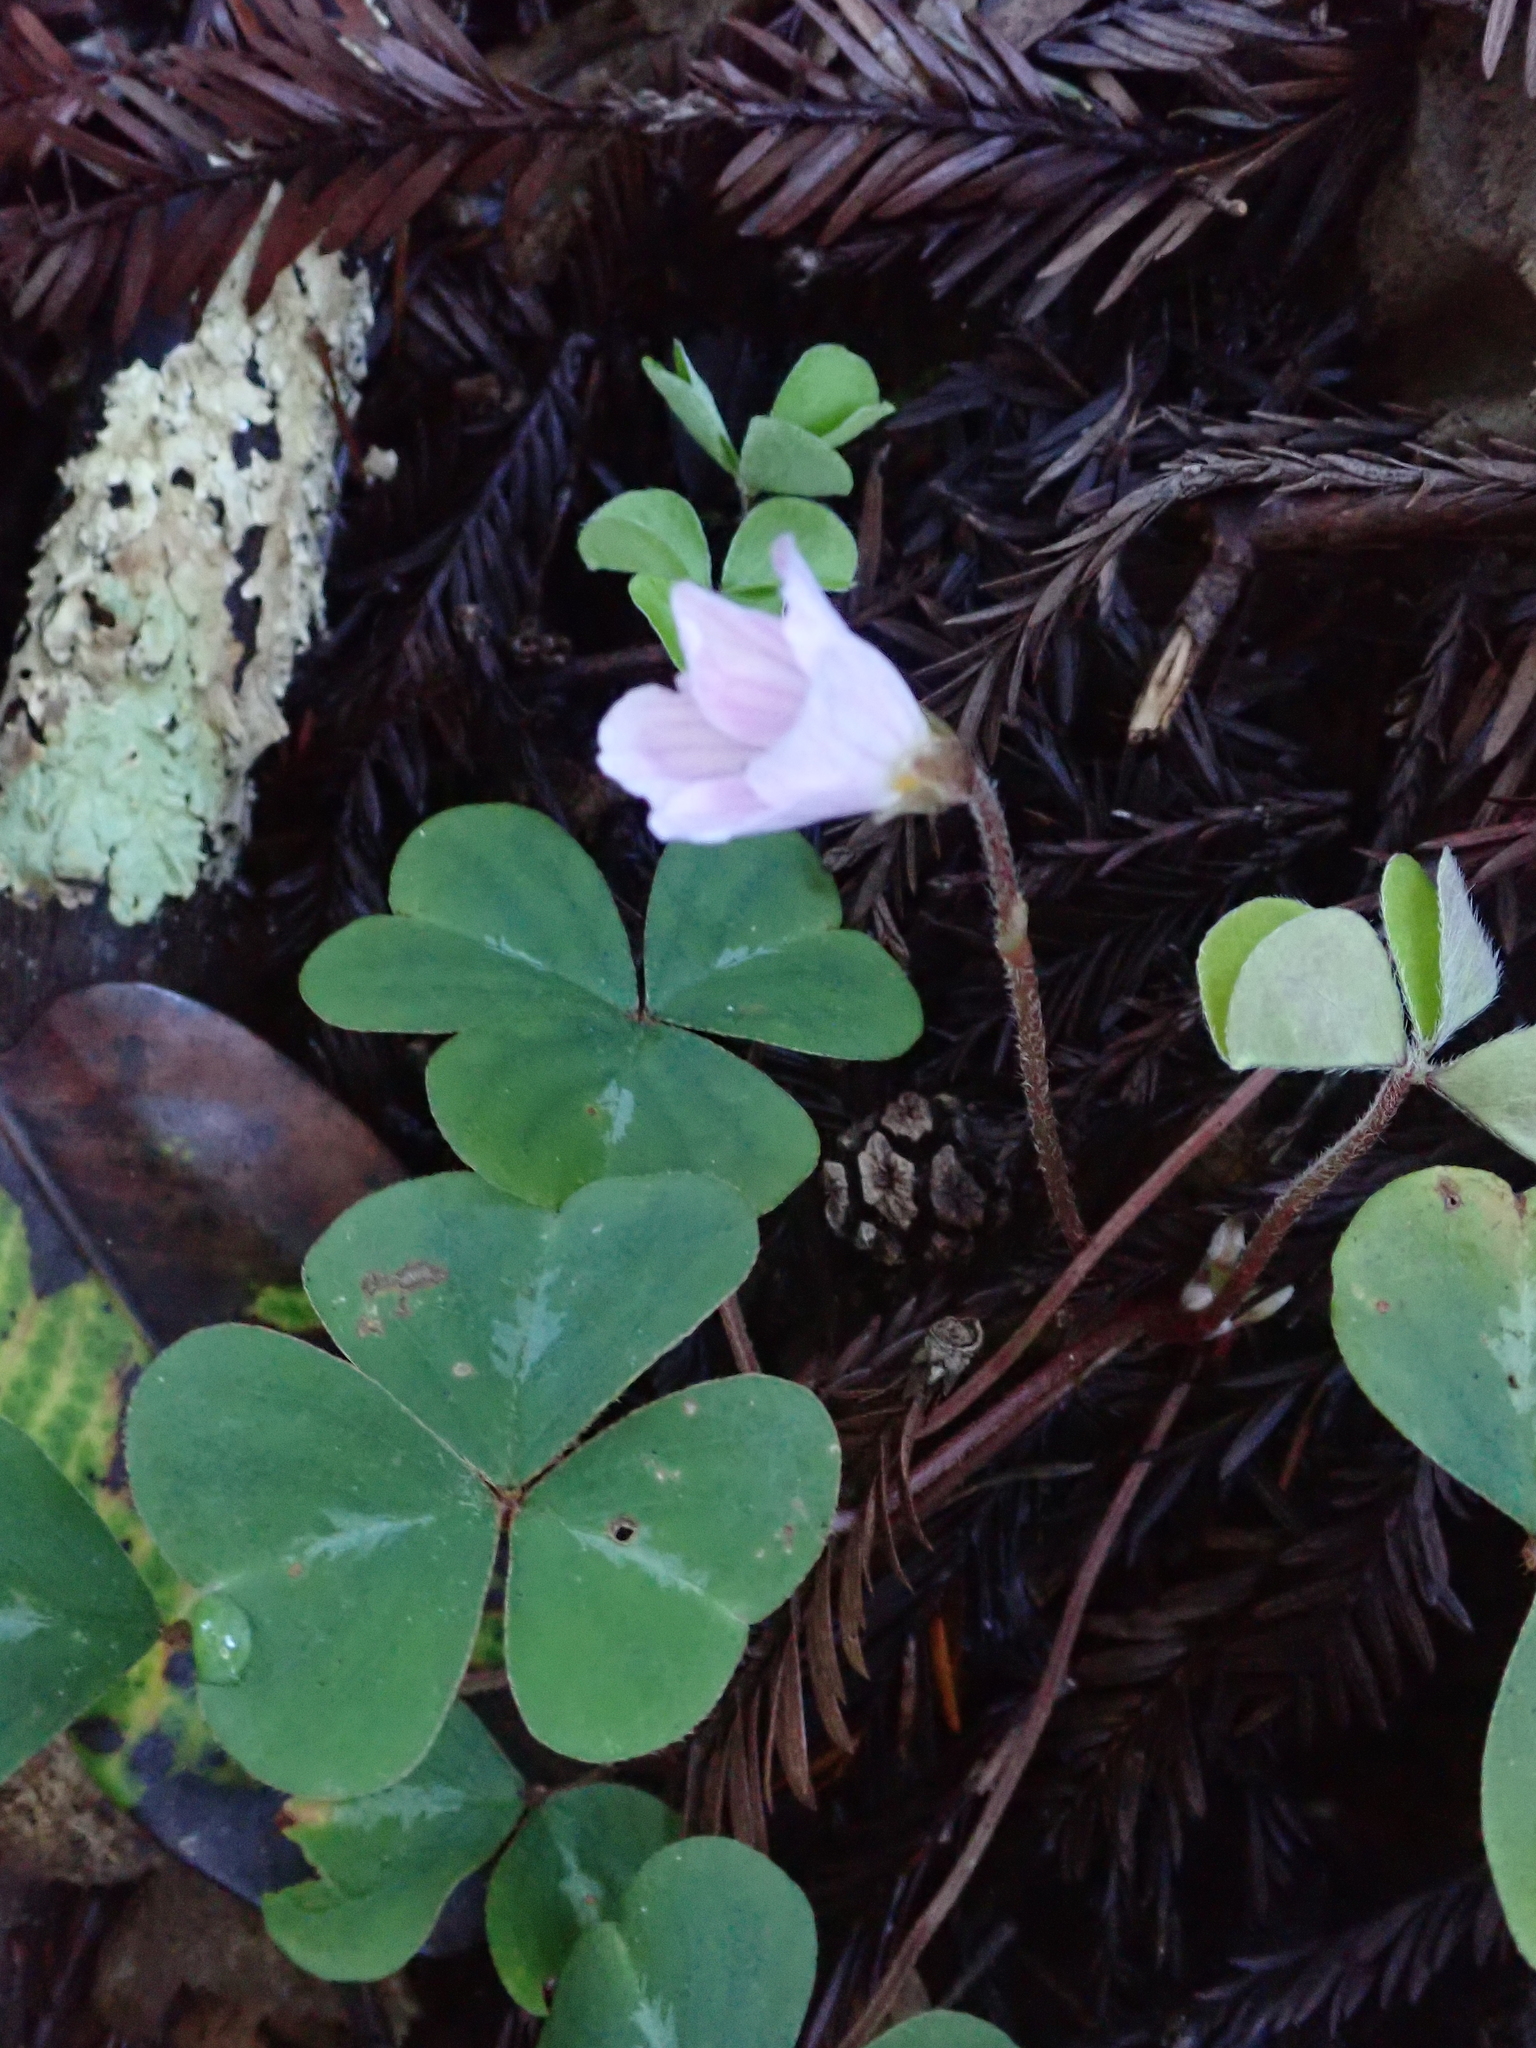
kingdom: Plantae
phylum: Tracheophyta
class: Magnoliopsida
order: Oxalidales
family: Oxalidaceae
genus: Oxalis
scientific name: Oxalis oregana
